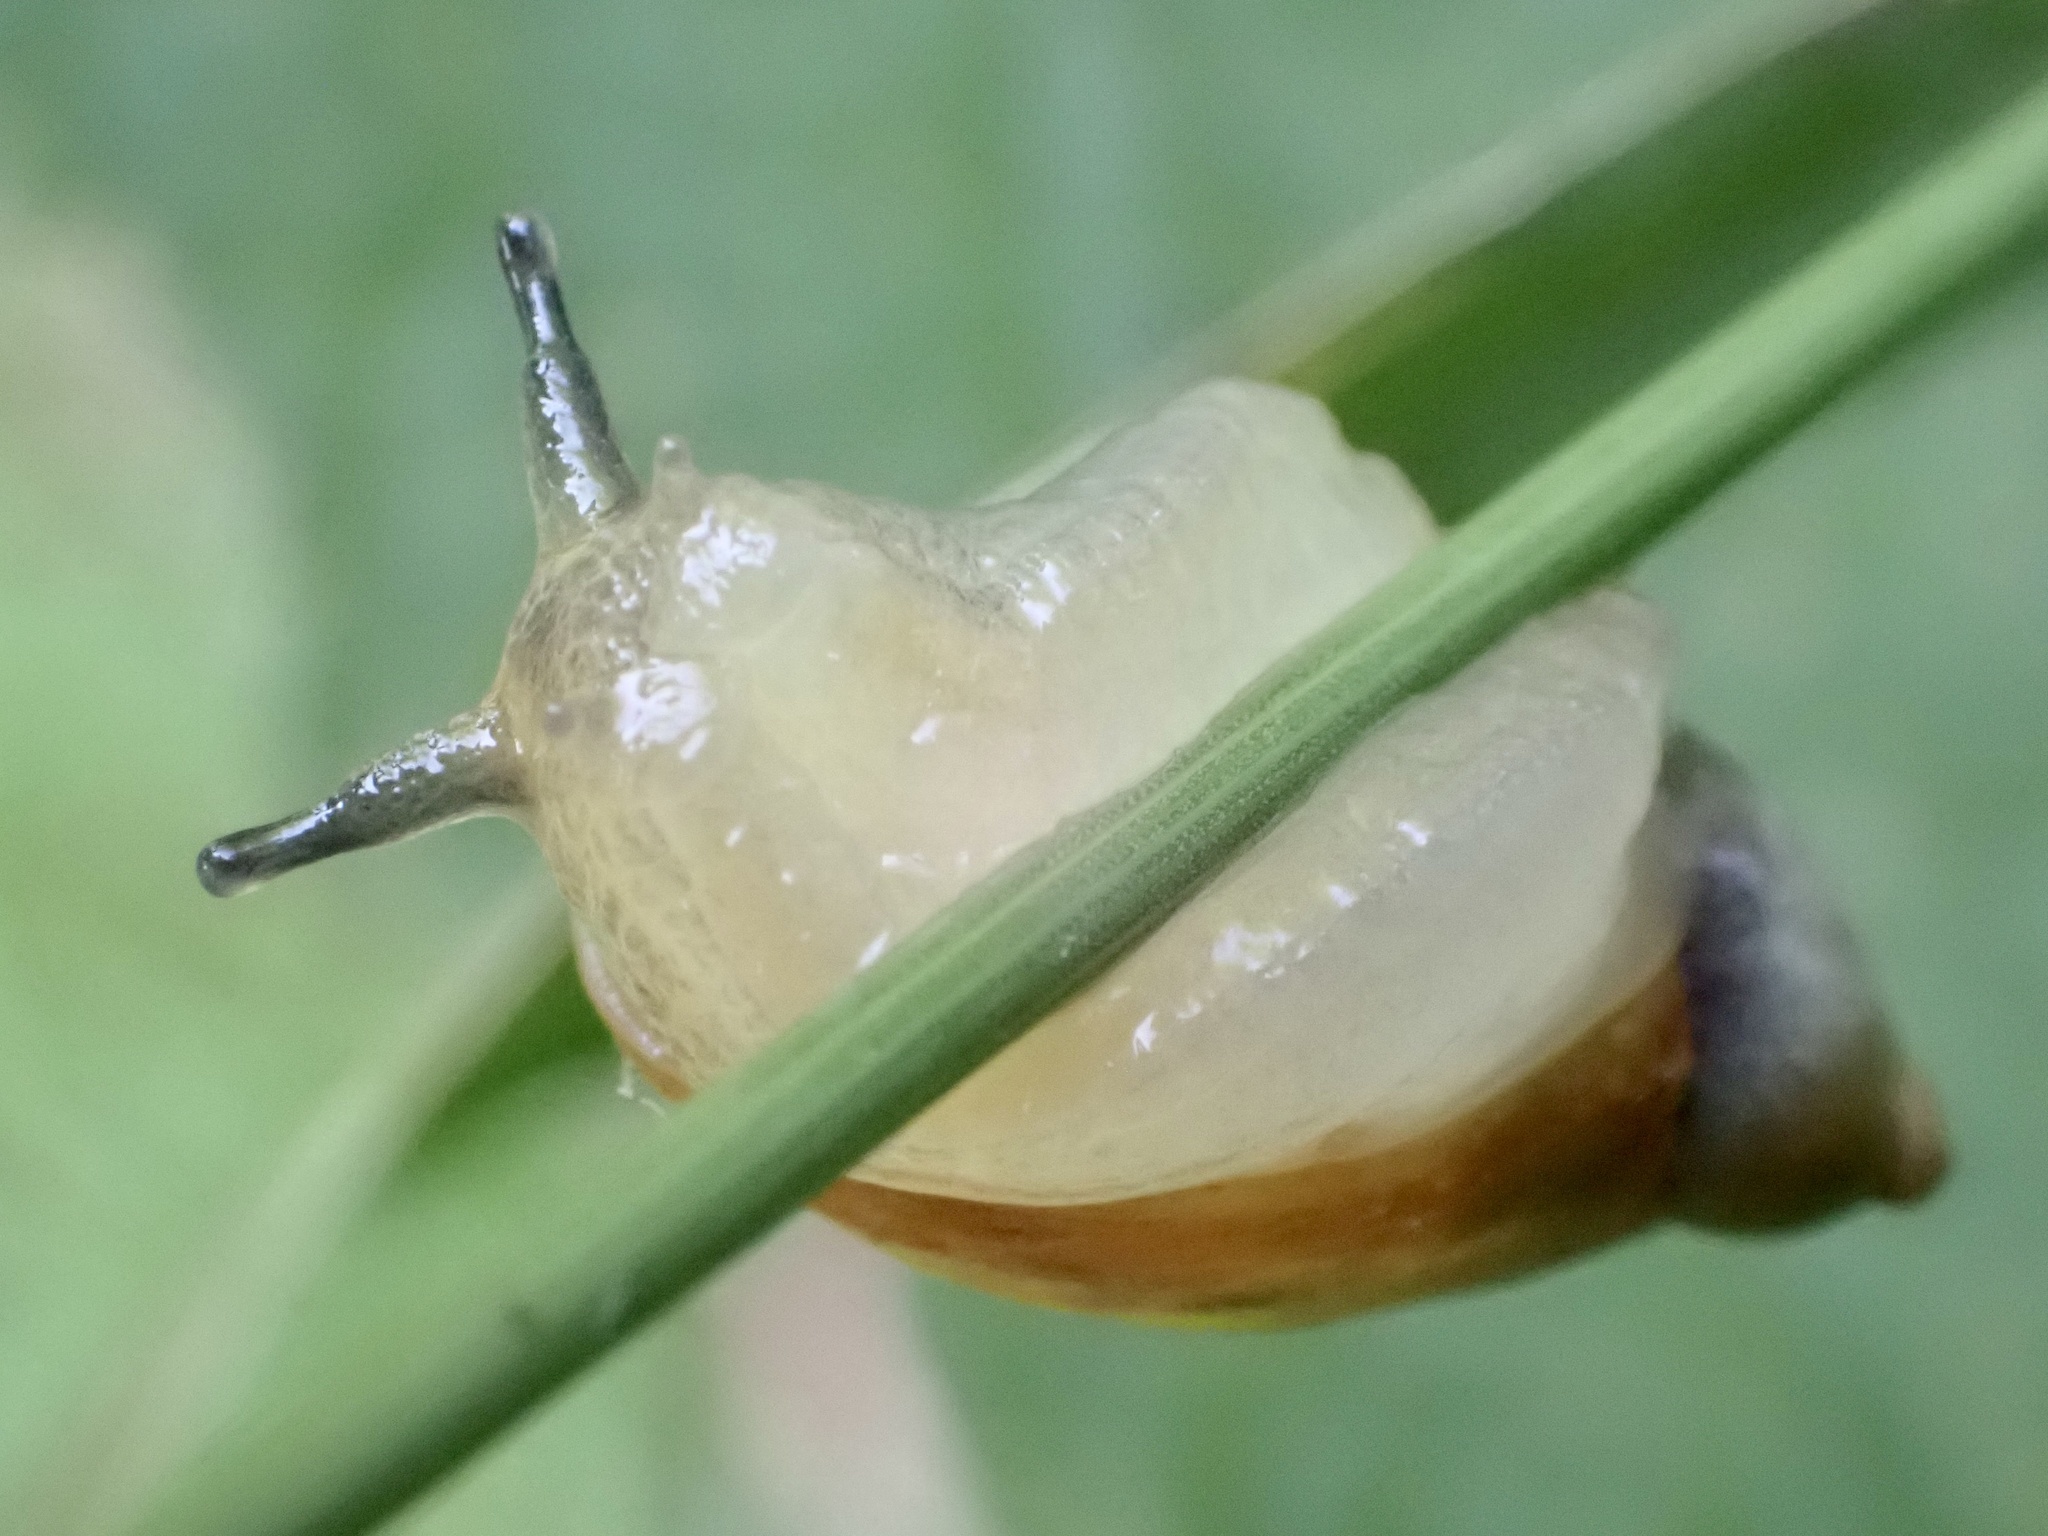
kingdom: Animalia
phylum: Mollusca
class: Gastropoda
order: Stylommatophora
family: Succineidae
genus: Succinea
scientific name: Succinea putris
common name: European ambersnail
